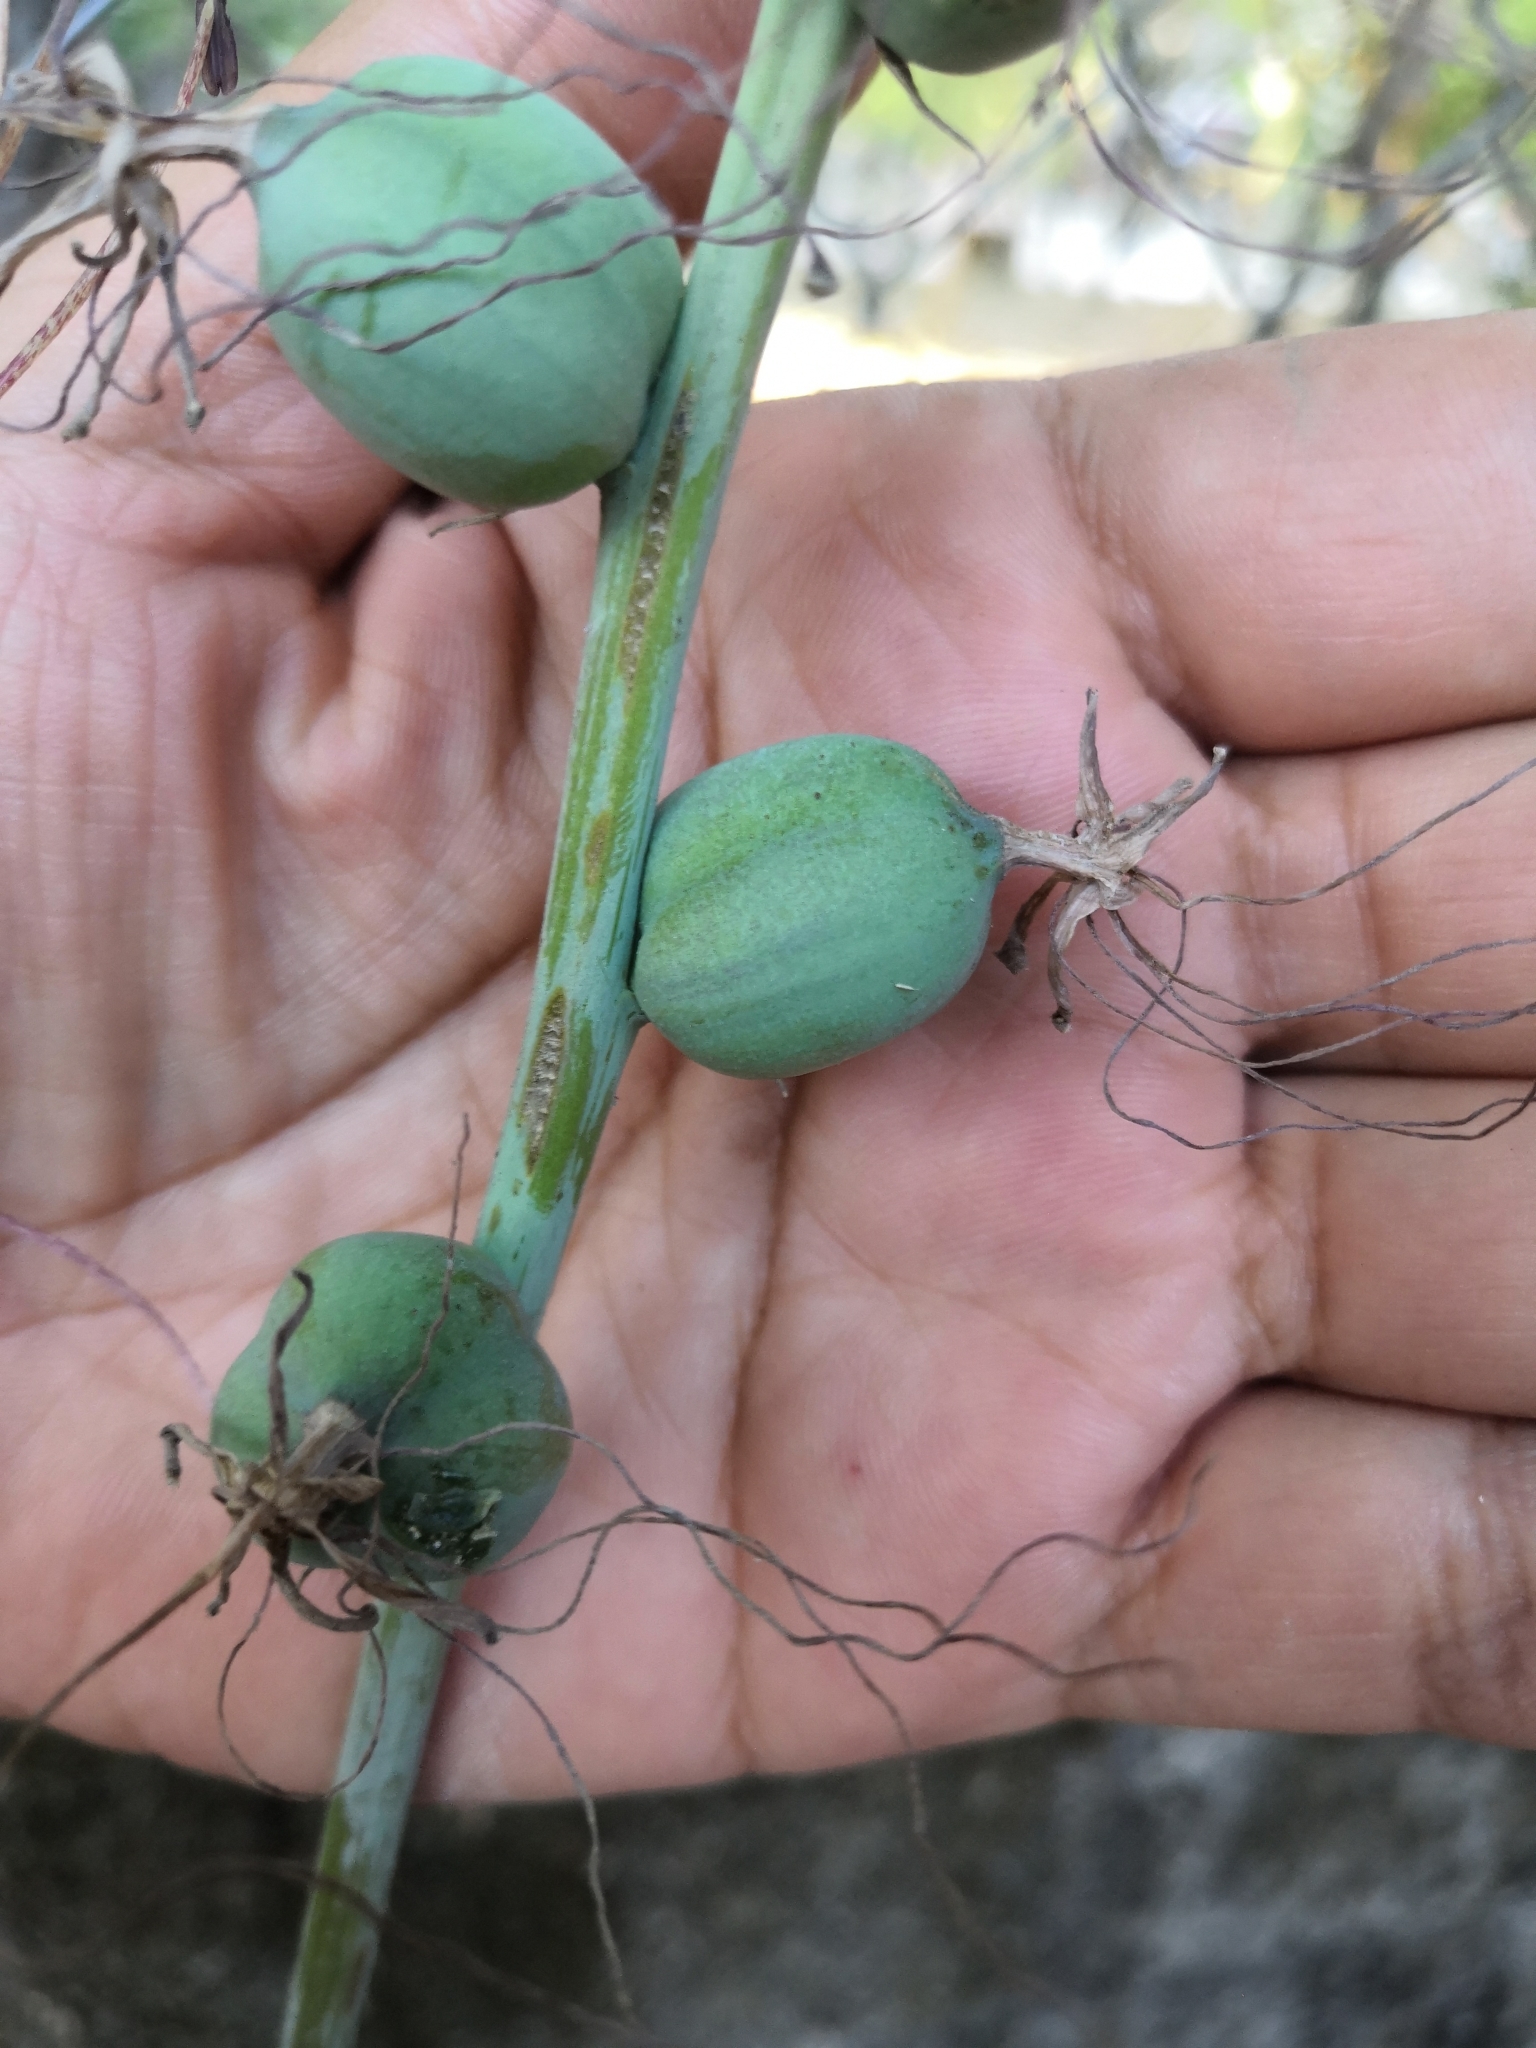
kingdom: Plantae
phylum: Tracheophyta
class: Liliopsida
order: Asparagales
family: Asparagaceae
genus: Agave
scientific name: Agave jaliscana
